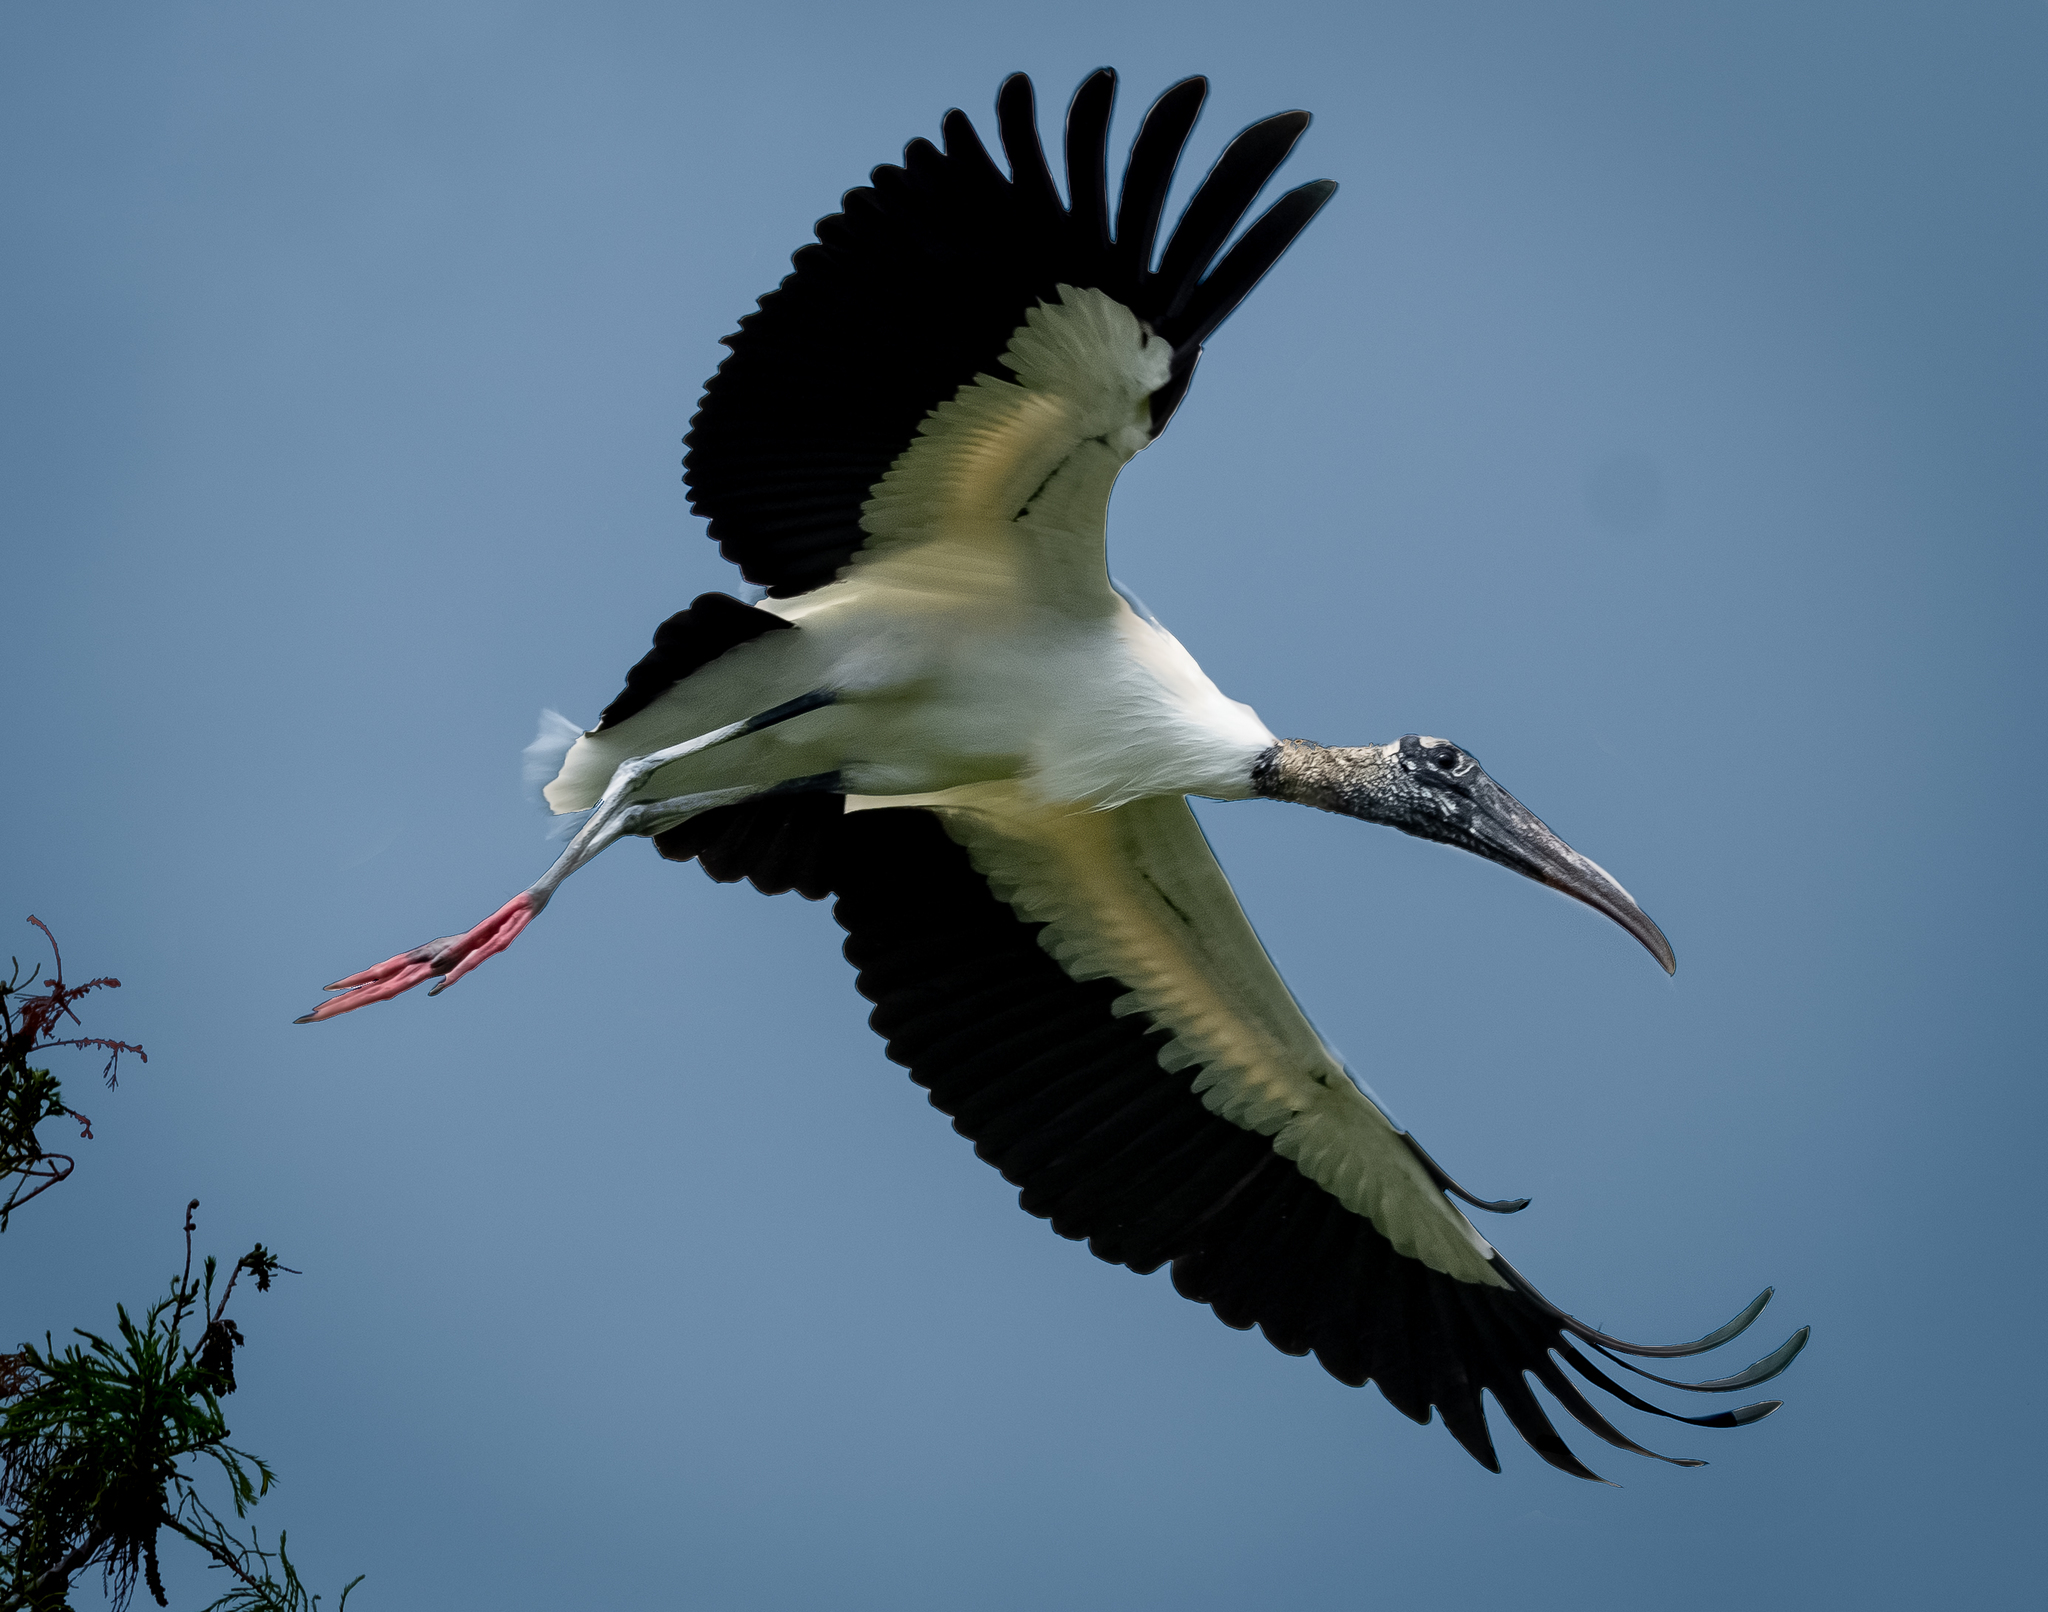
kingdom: Animalia
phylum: Chordata
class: Aves
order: Ciconiiformes
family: Ciconiidae
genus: Mycteria
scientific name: Mycteria americana
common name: Wood stork
